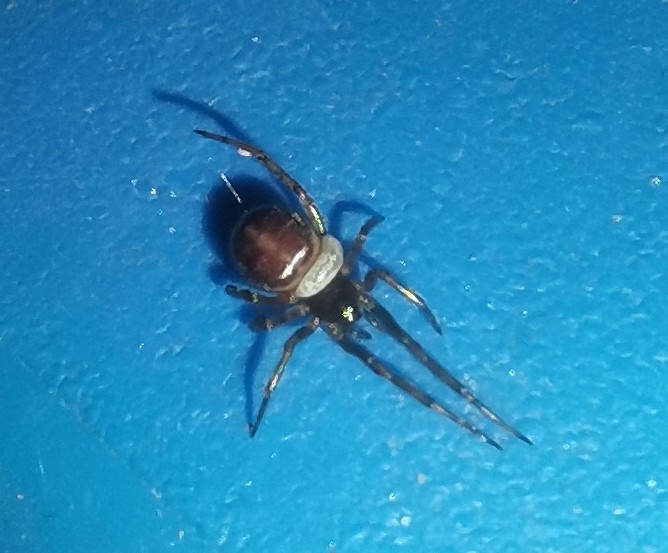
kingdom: Animalia
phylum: Arthropoda
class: Arachnida
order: Araneae
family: Theridiidae
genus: Steatoda
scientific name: Steatoda bipunctata
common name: False widow
